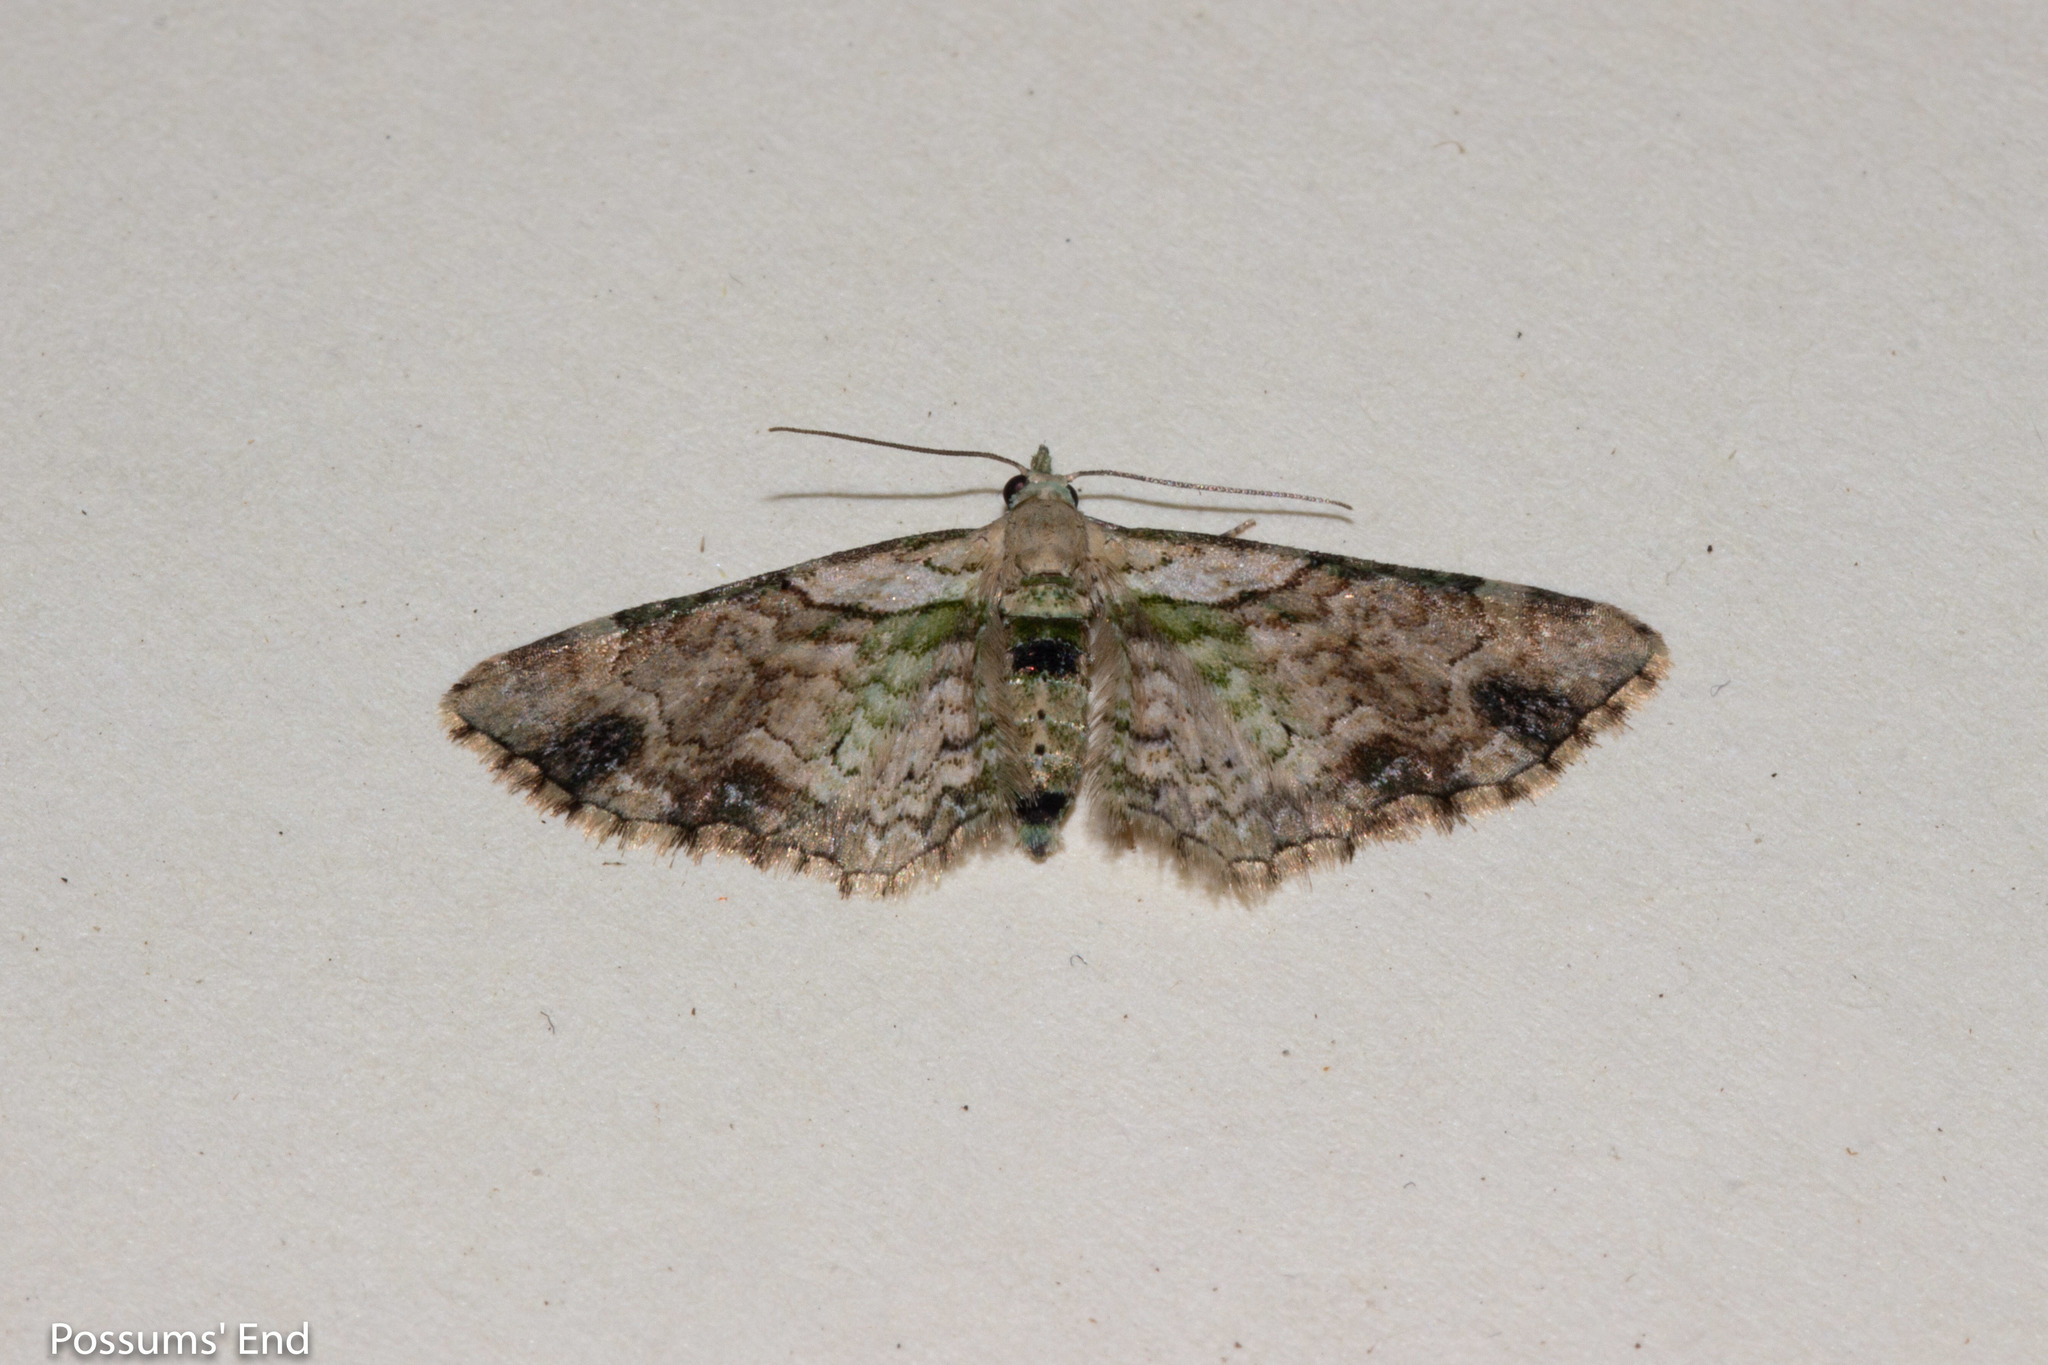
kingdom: Animalia
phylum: Arthropoda
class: Insecta
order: Lepidoptera
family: Geometridae
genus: Chloroclystis
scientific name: Chloroclystis
